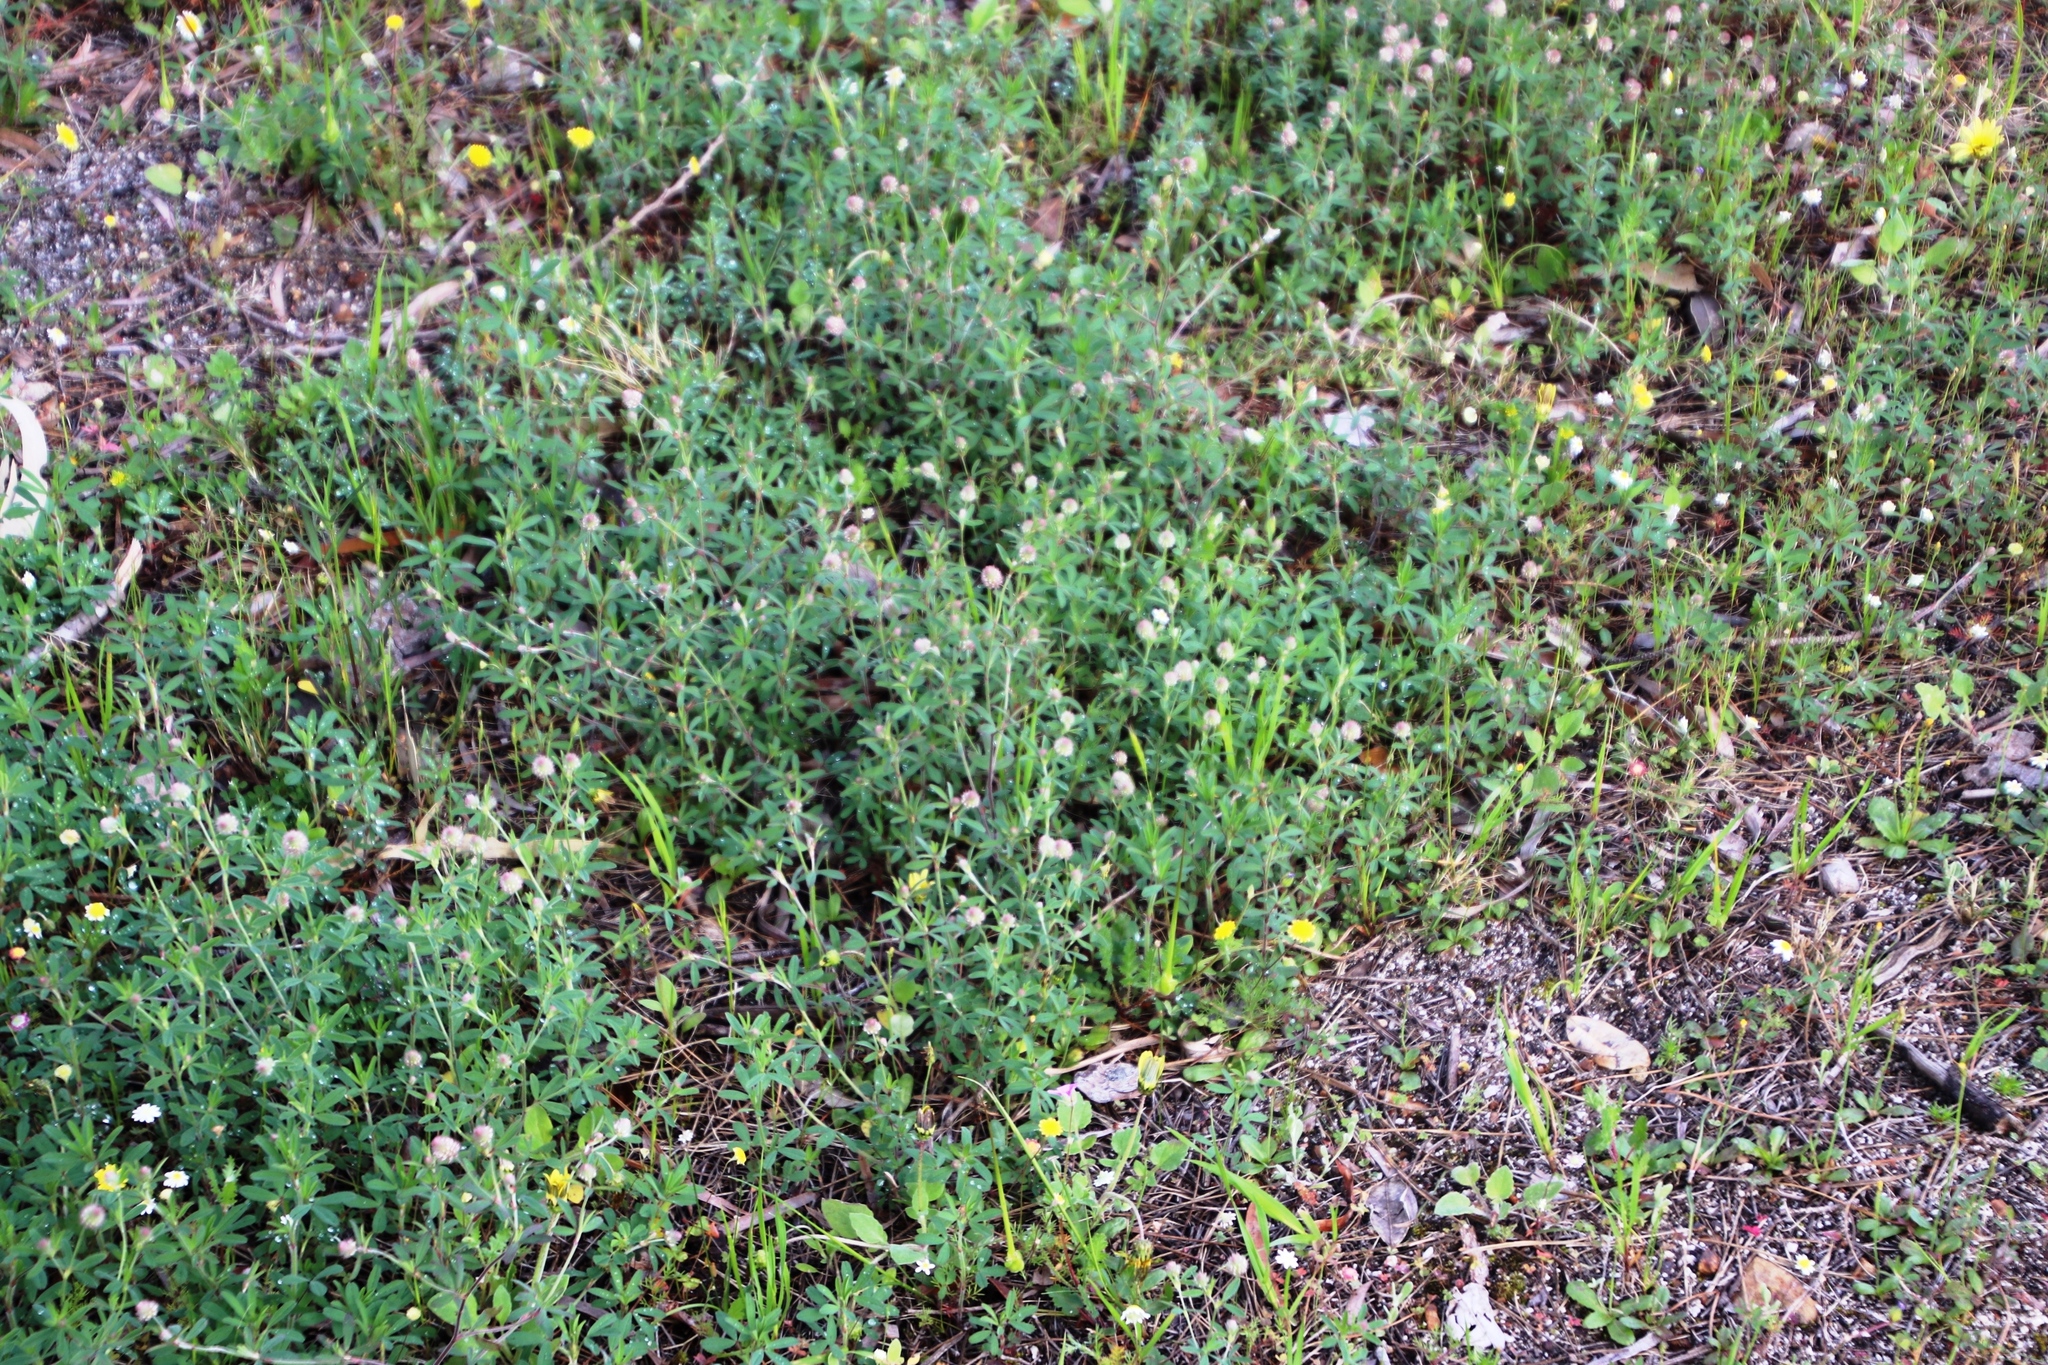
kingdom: Plantae
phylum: Tracheophyta
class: Magnoliopsida
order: Fabales
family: Fabaceae
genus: Trifolium
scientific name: Trifolium arvense
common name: Hare's-foot clover
